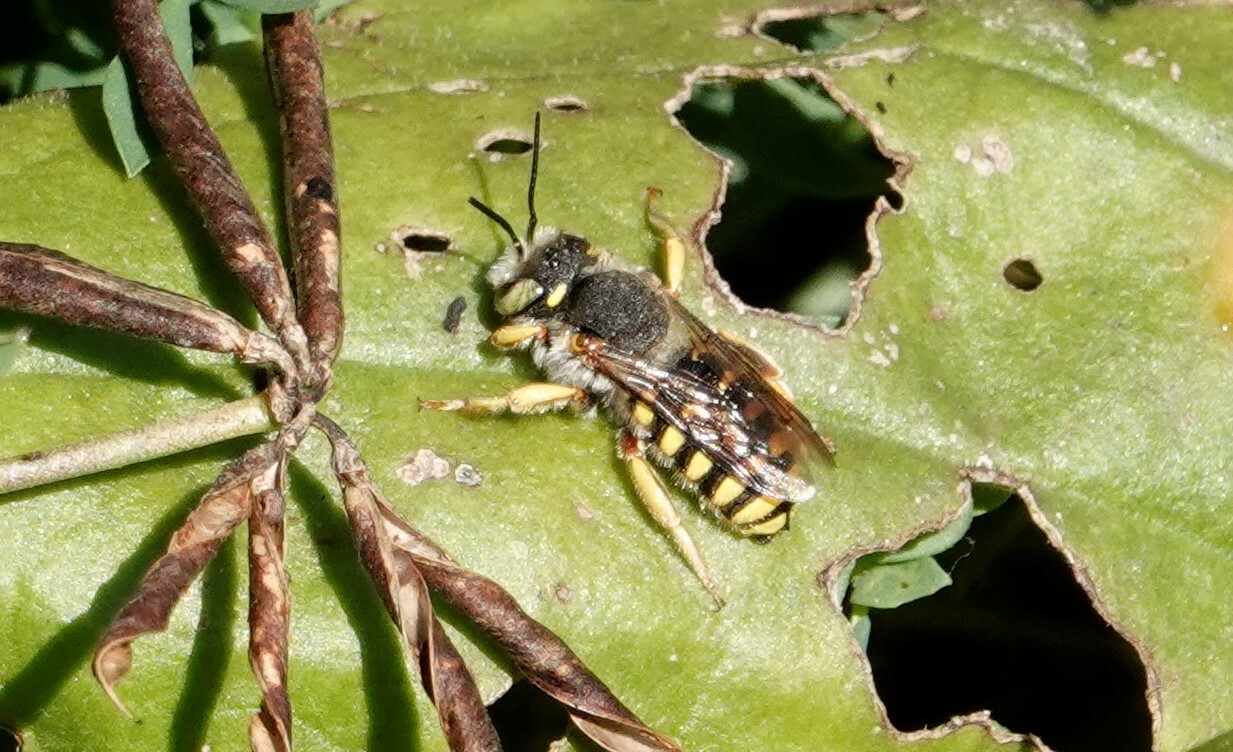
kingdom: Animalia
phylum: Arthropoda
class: Insecta
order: Hymenoptera
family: Megachilidae
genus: Anthidium
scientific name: Anthidium oblongatum
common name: Oblong wool carder bee
